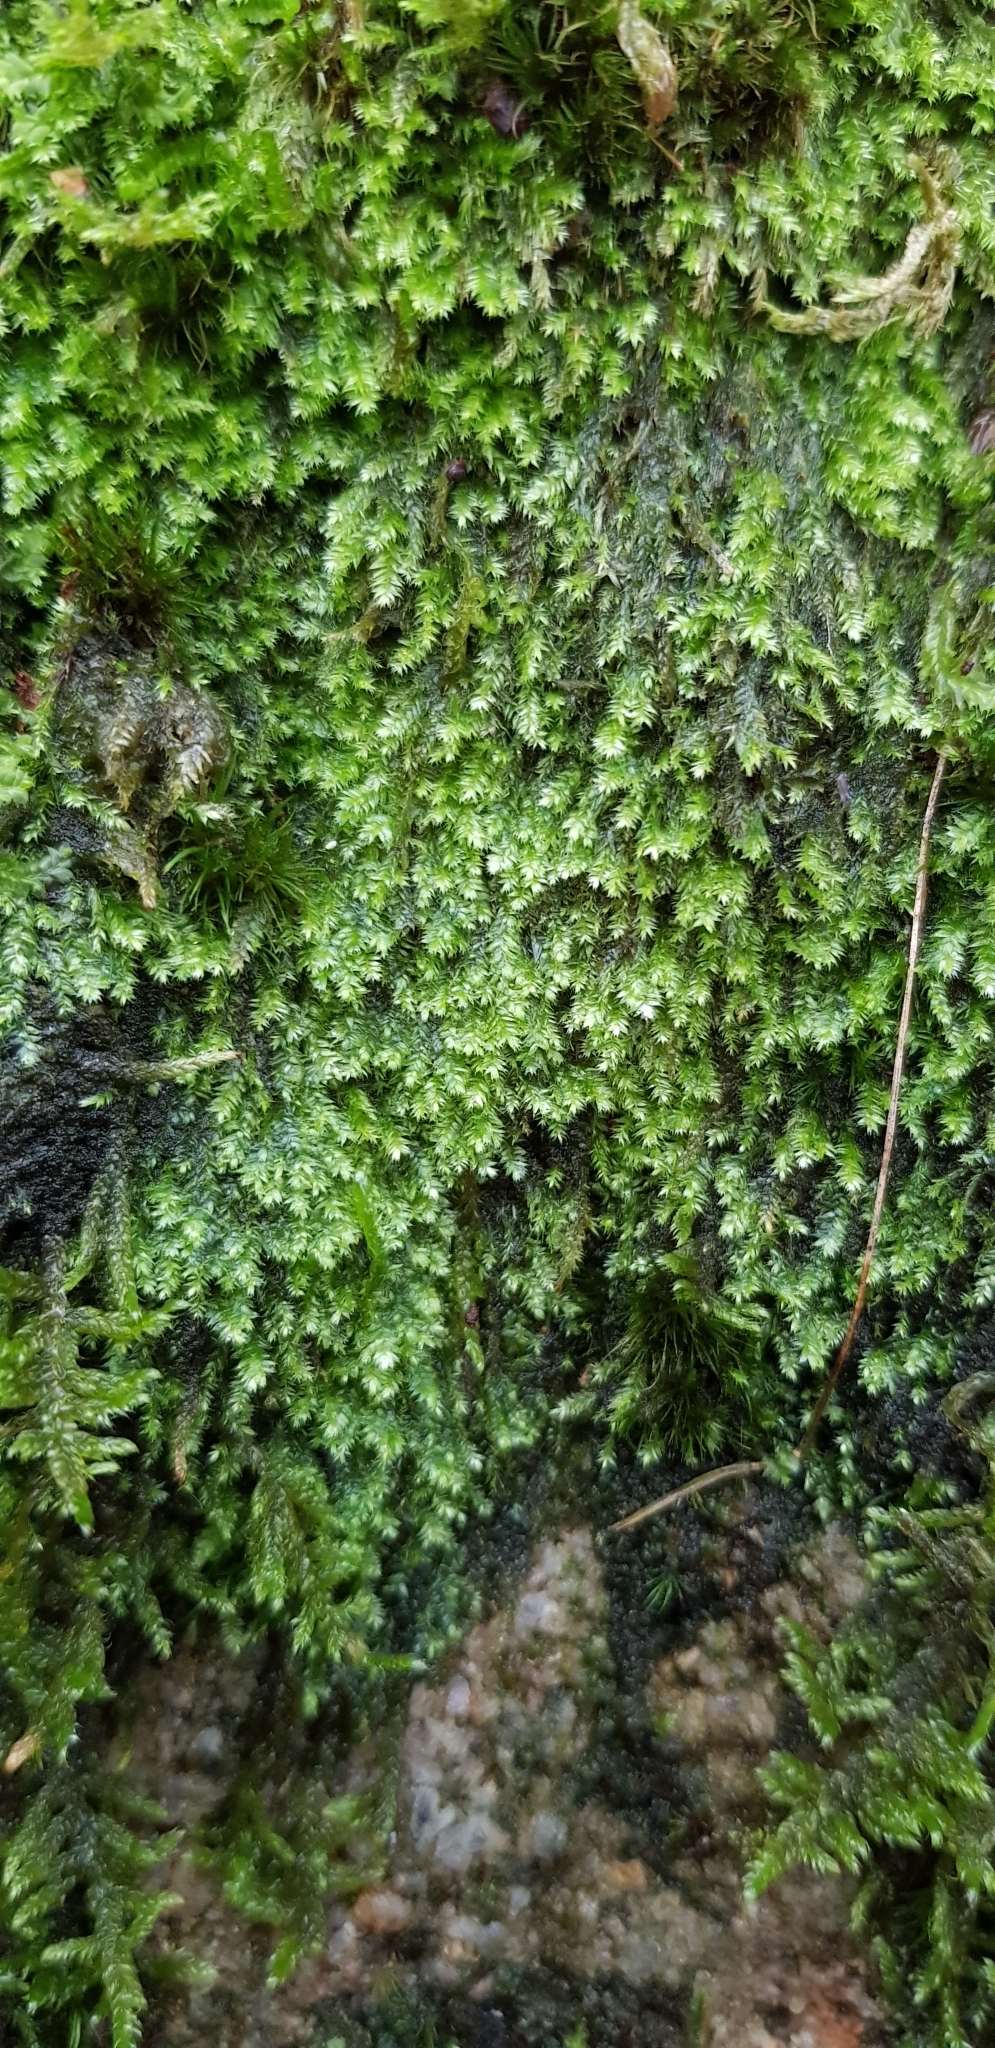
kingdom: Plantae
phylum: Bryophyta
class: Bryopsida
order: Hypnales
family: Plagiotheciaceae
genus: Pseudotaxiphyllum
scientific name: Pseudotaxiphyllum elegans
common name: Elegant silk moss
